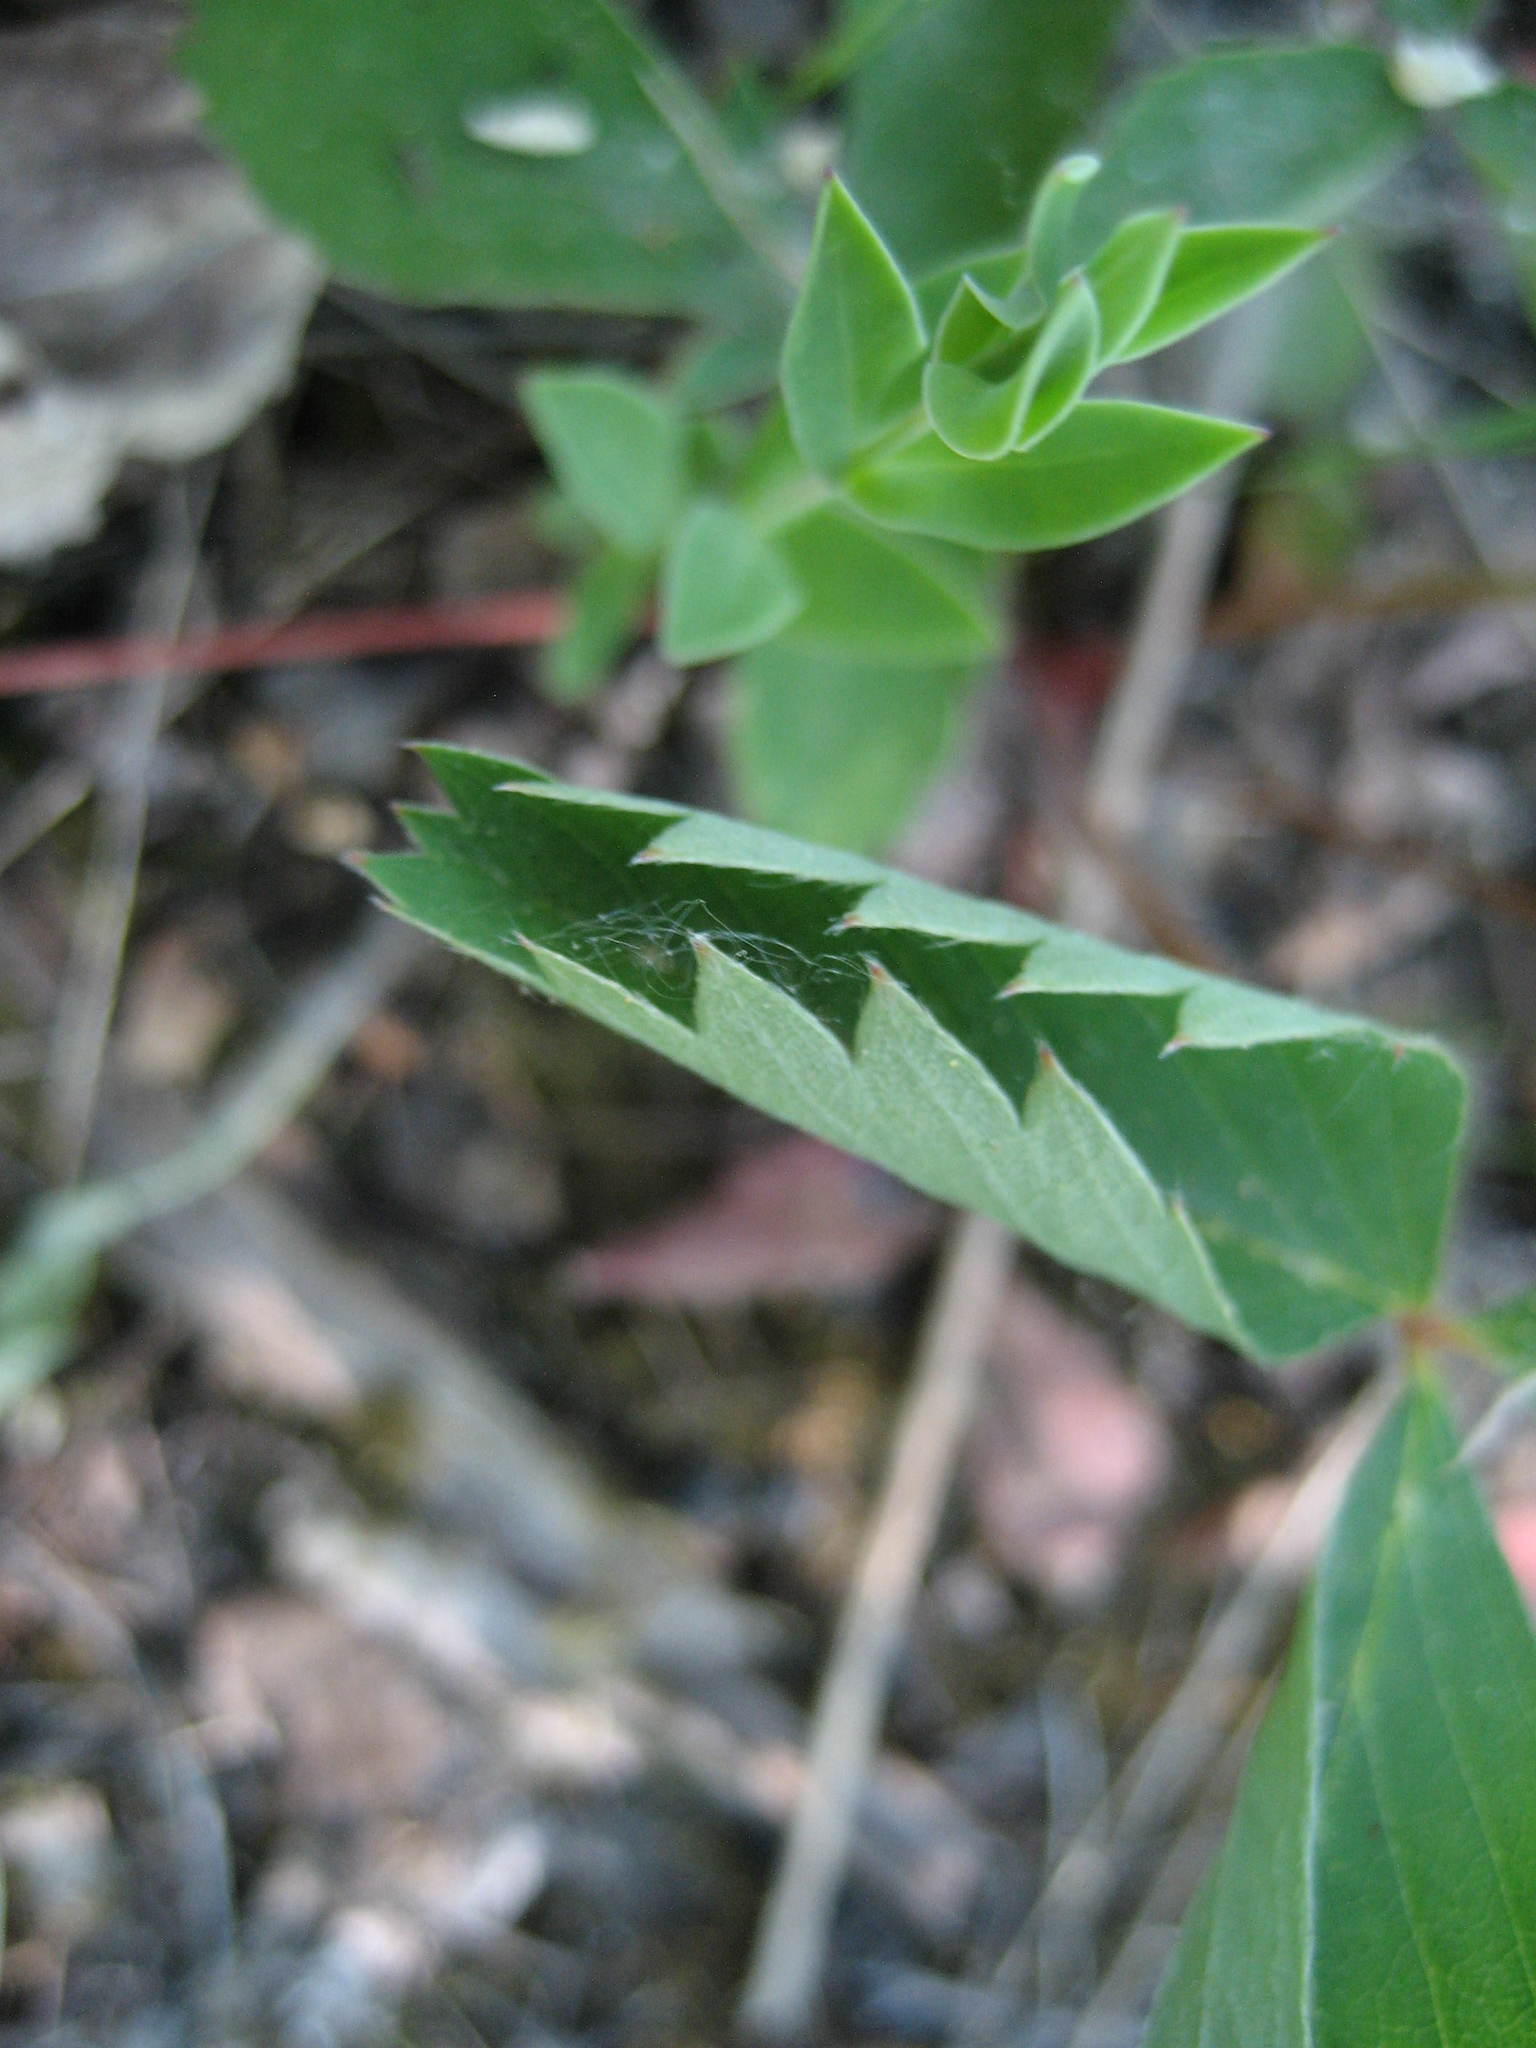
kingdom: Plantae
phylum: Tracheophyta
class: Magnoliopsida
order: Rosales
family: Rosaceae
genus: Fragaria
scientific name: Fragaria virginiana
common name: Thickleaved wild strawberry
